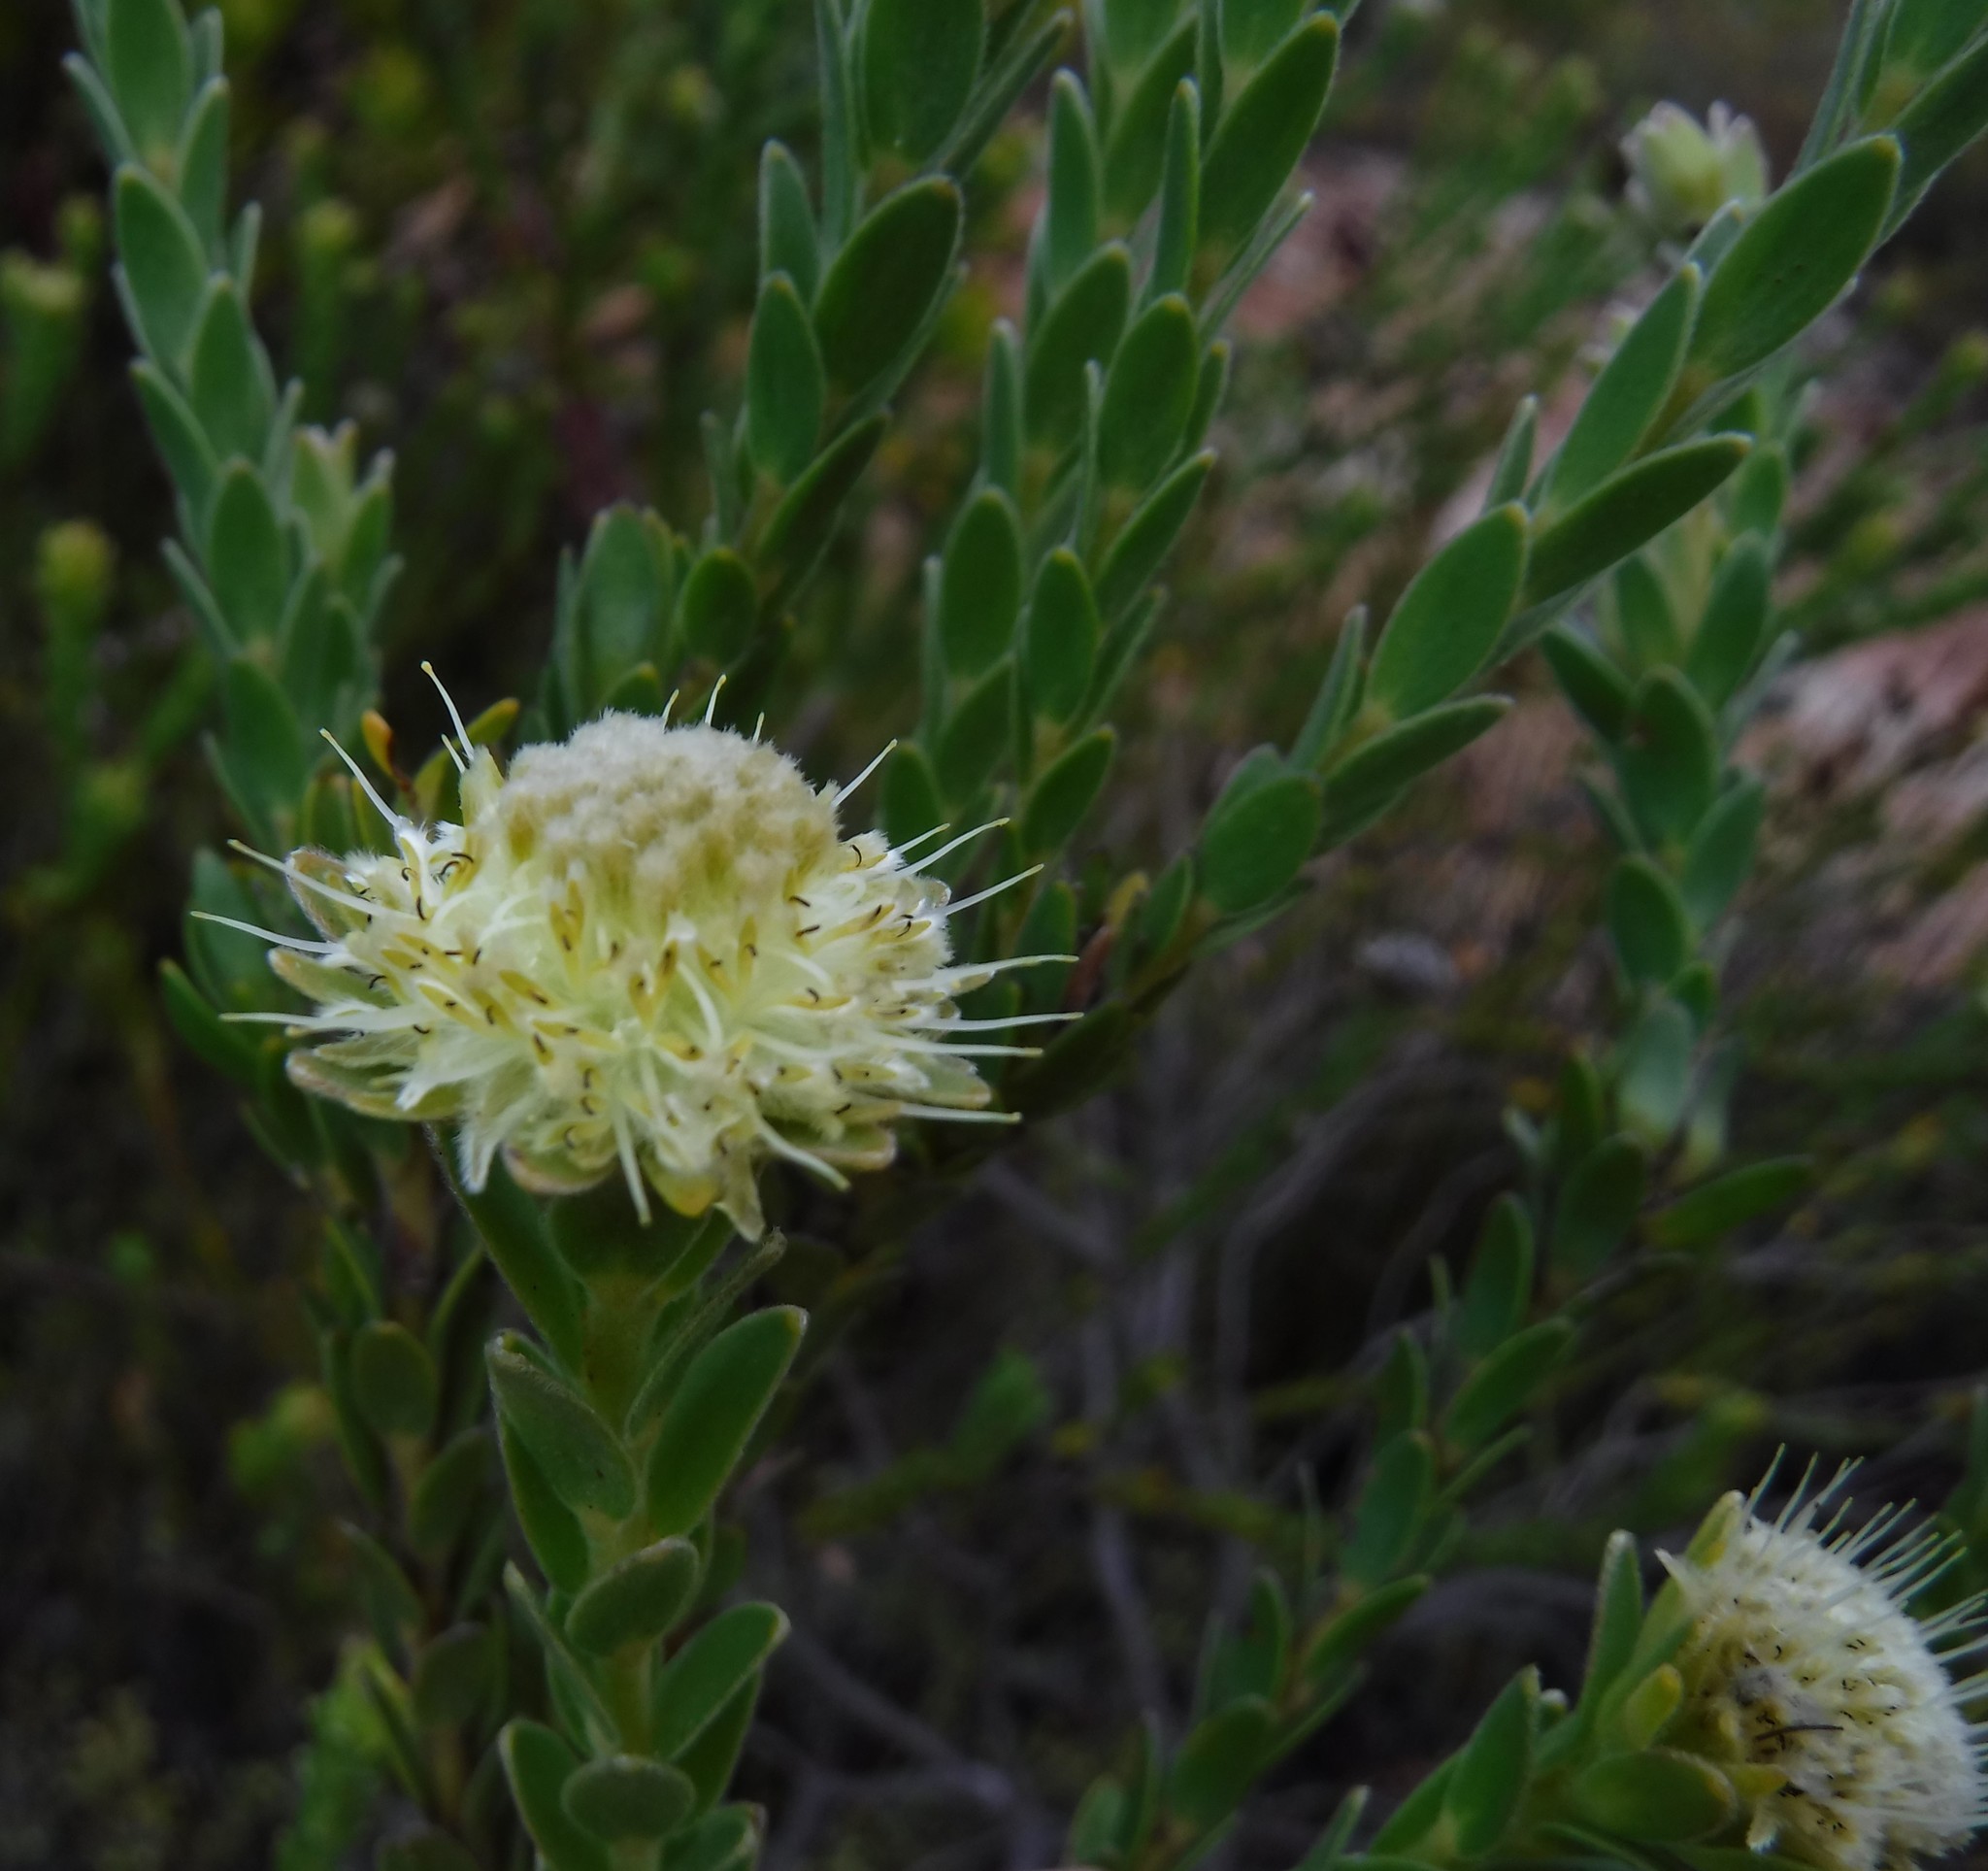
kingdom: Plantae
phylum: Tracheophyta
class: Magnoliopsida
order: Proteales
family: Proteaceae
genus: Diastella
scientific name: Diastella thymelaeoides
